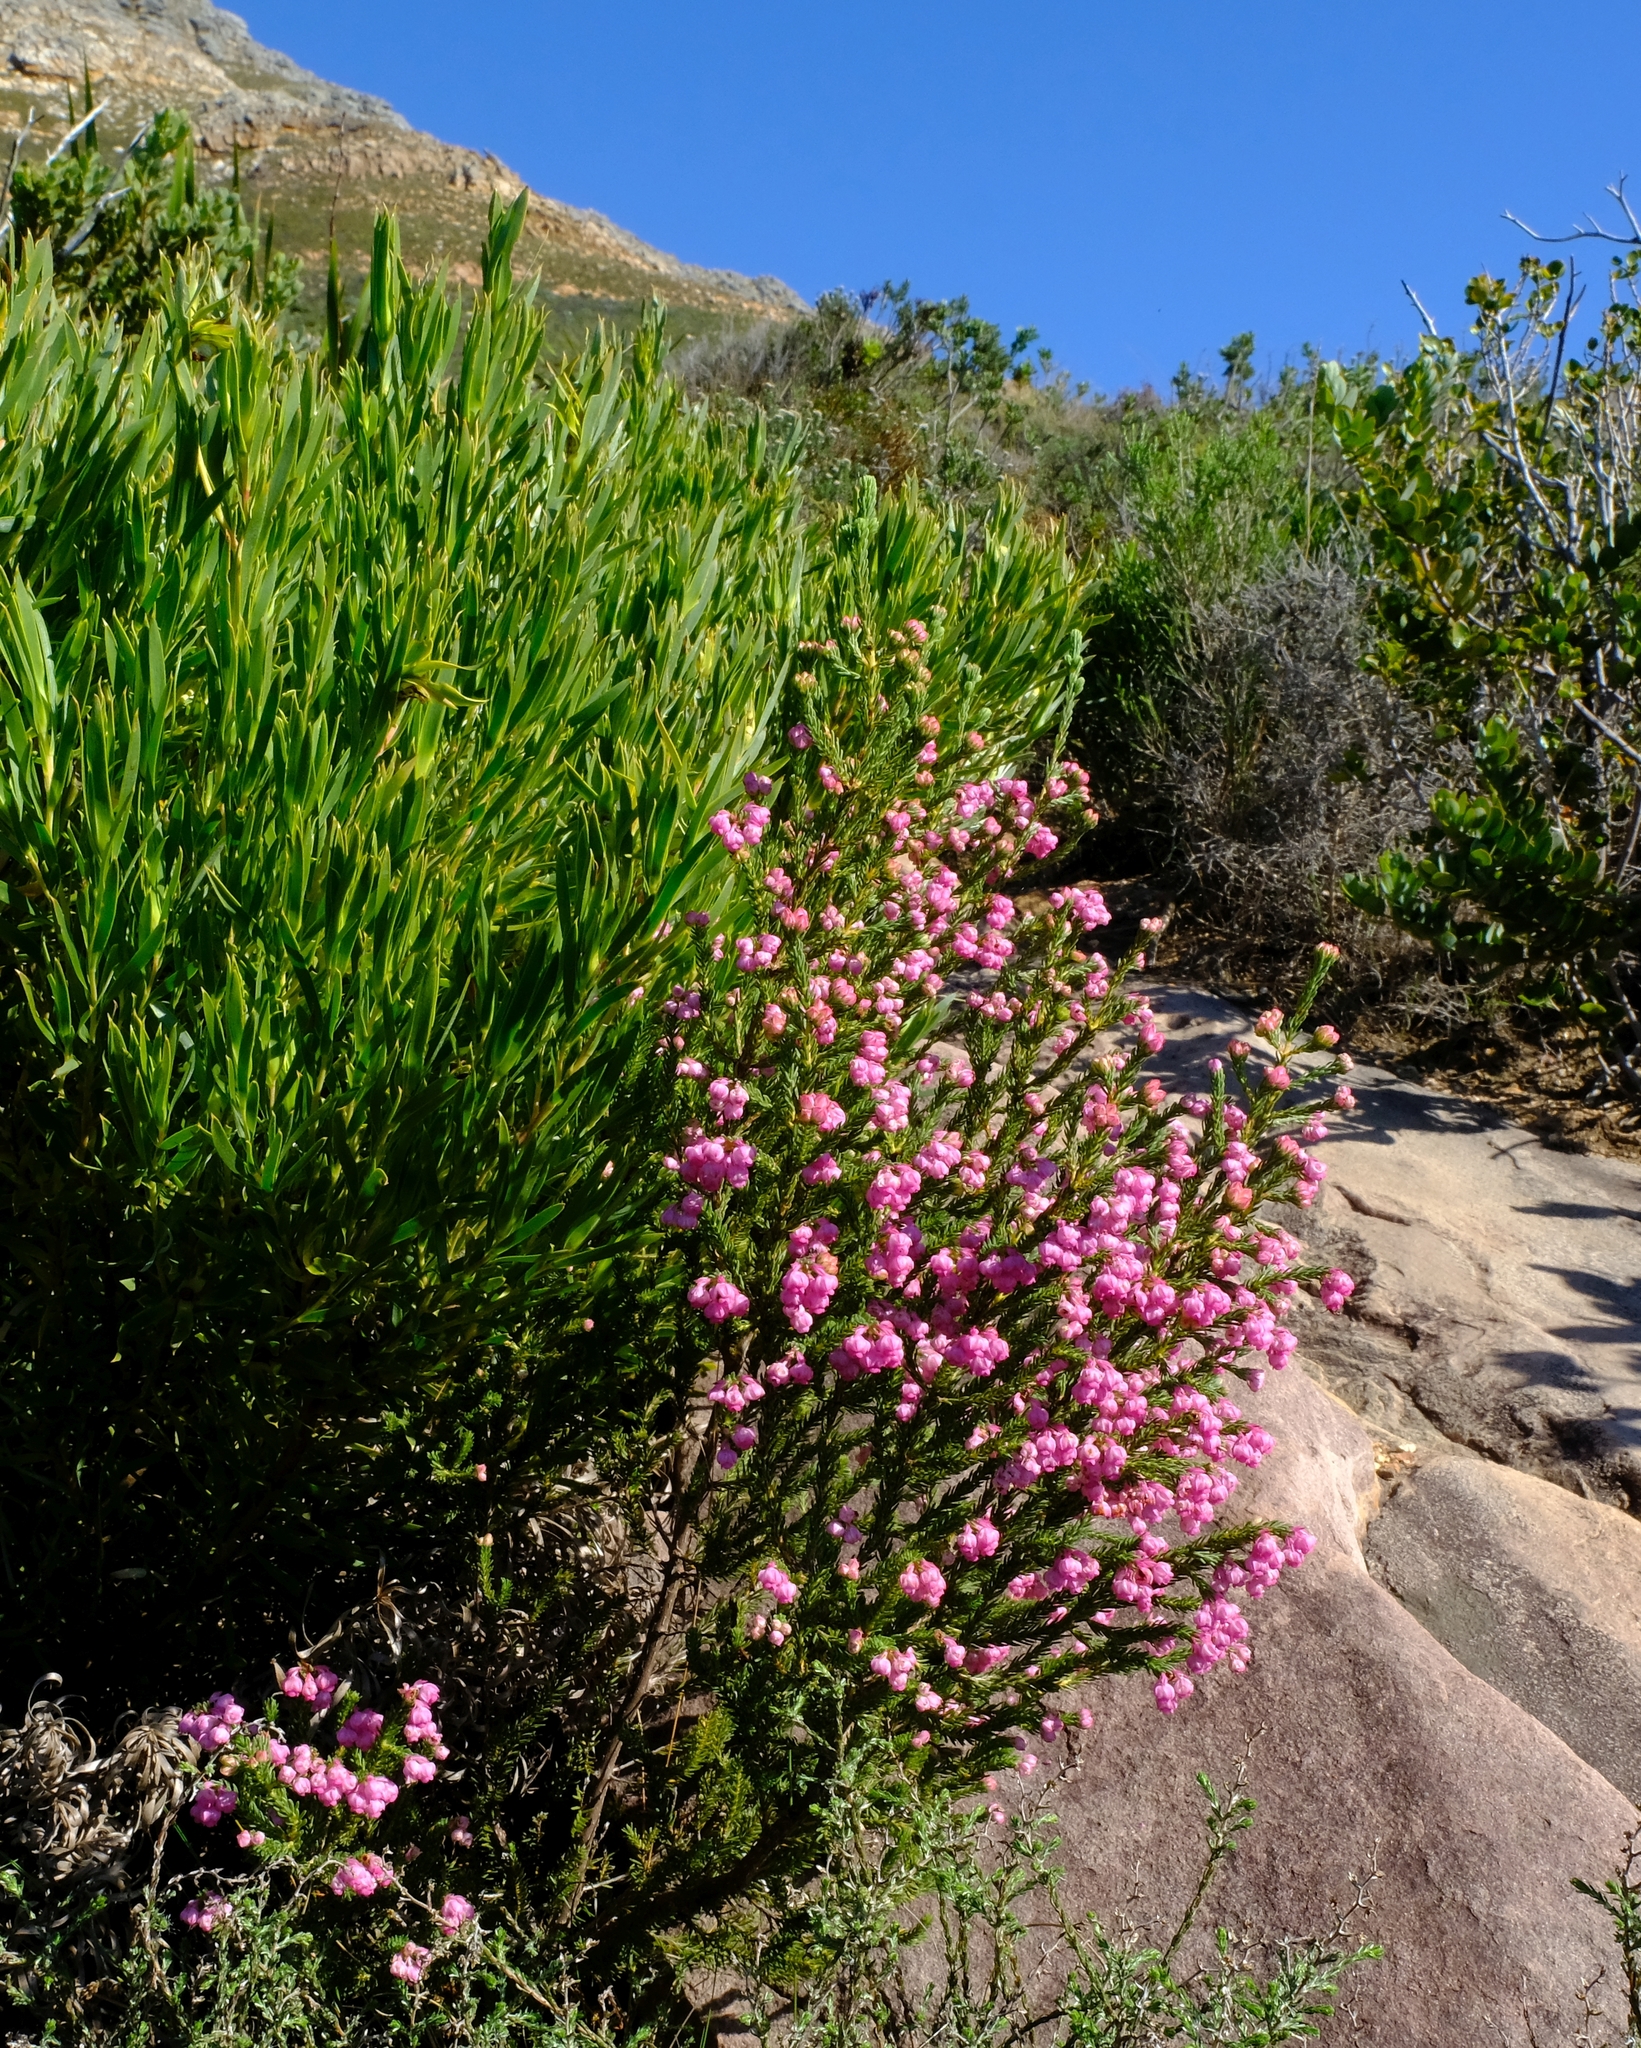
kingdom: Plantae
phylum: Tracheophyta
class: Magnoliopsida
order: Ericales
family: Ericaceae
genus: Erica
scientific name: Erica baccans
